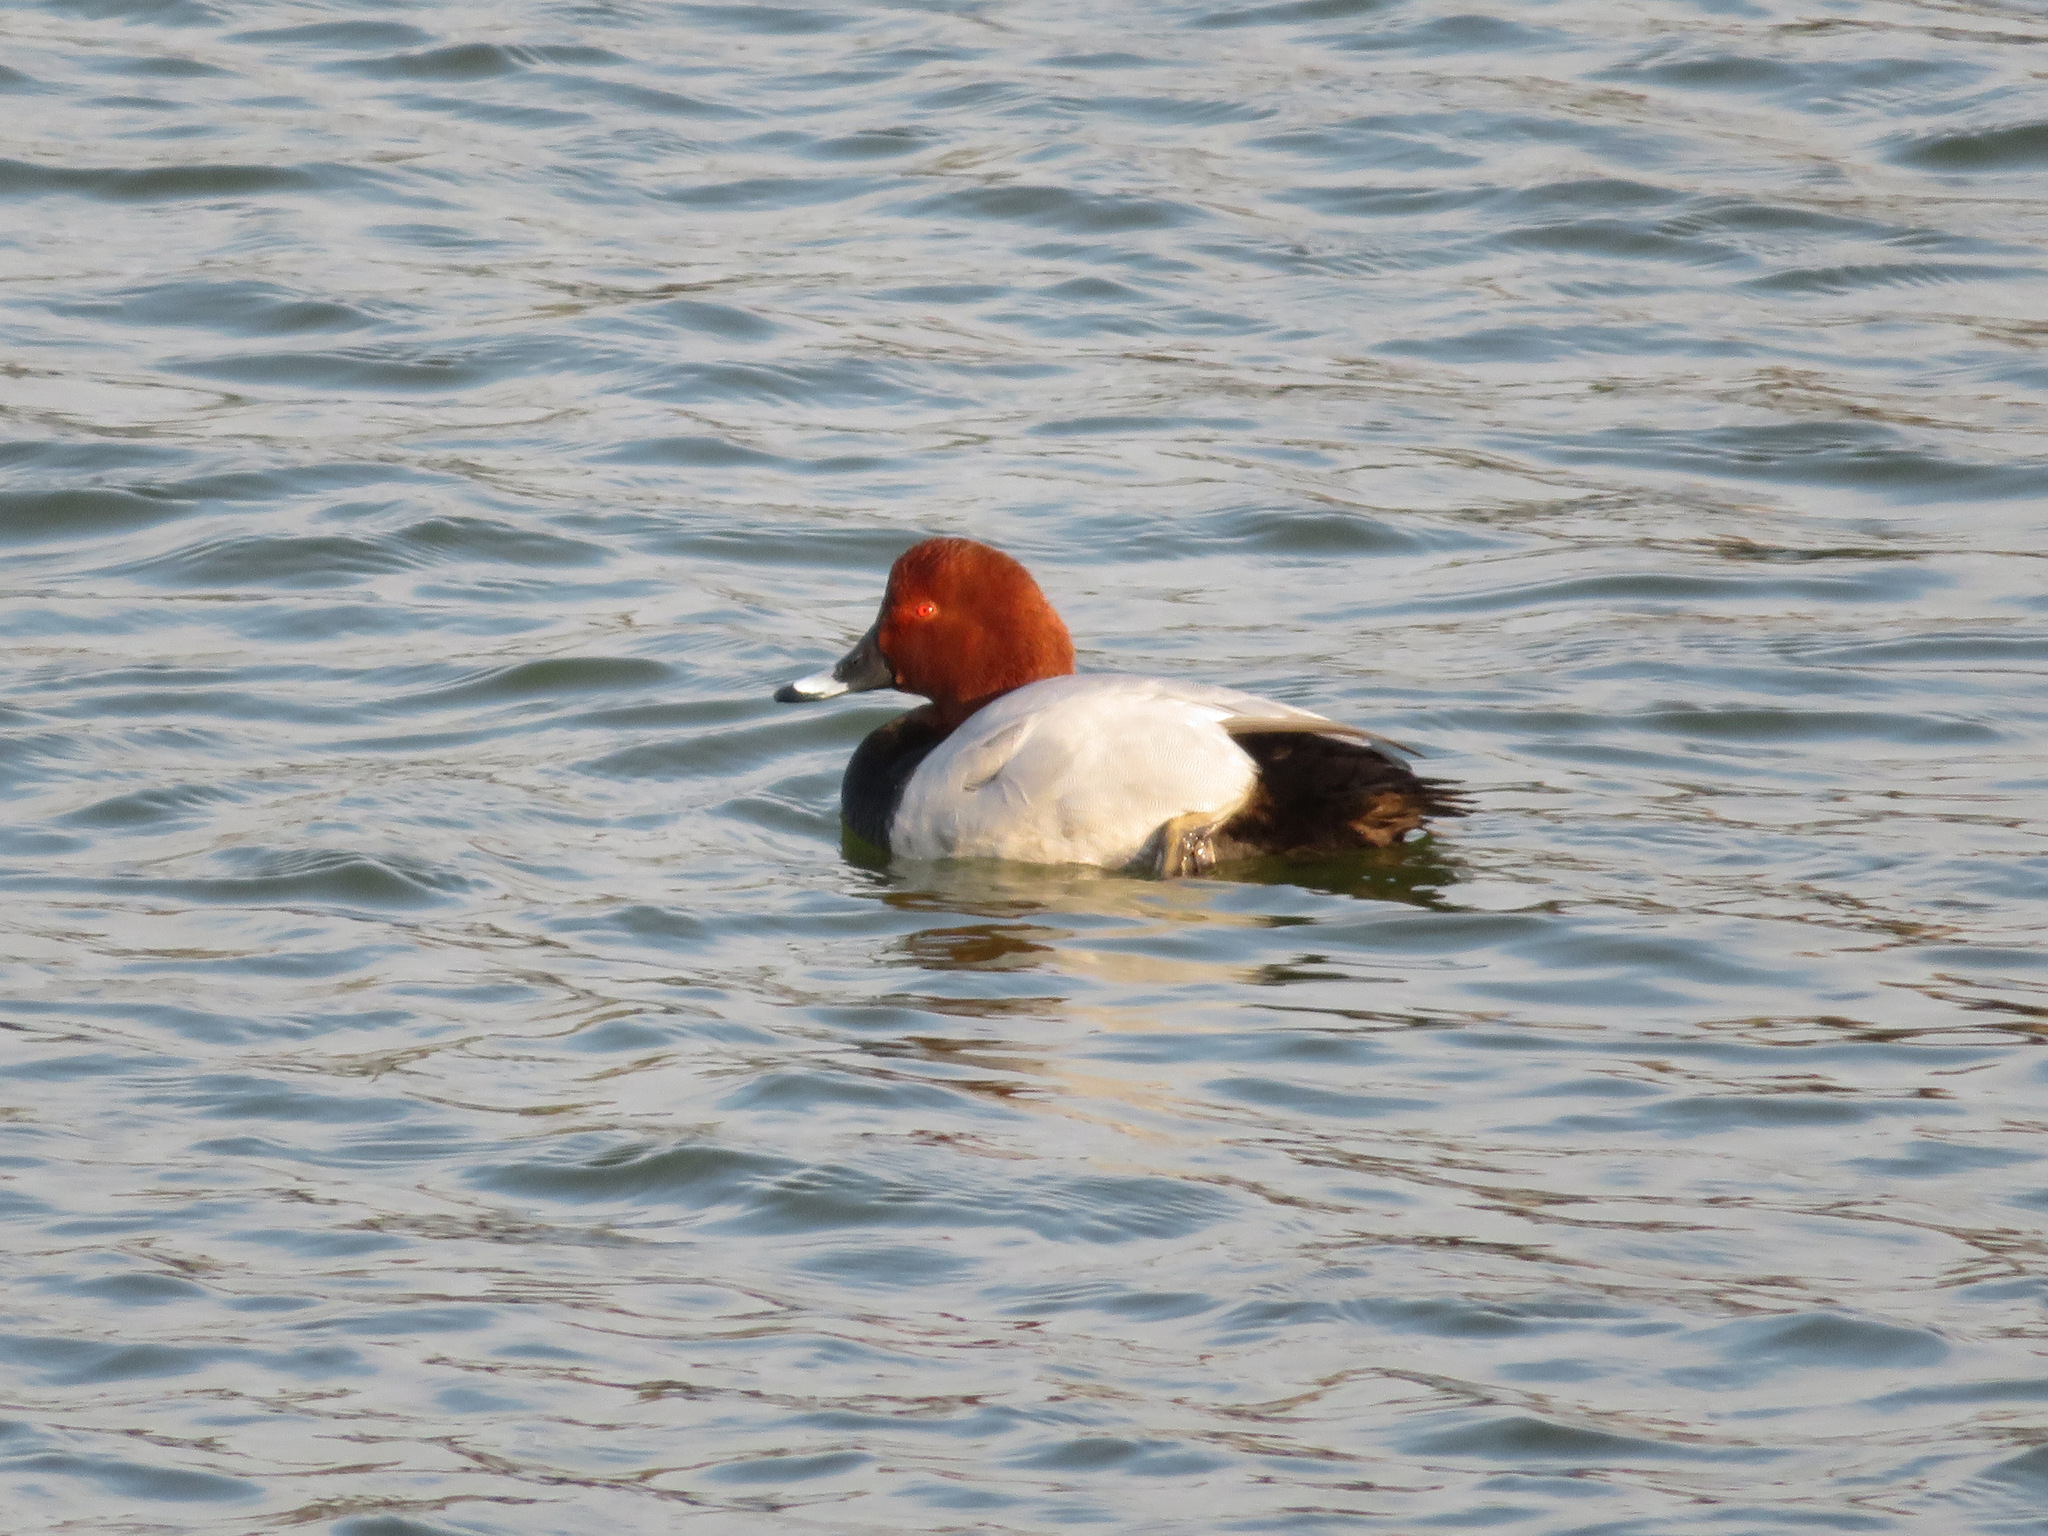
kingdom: Animalia
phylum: Chordata
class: Aves
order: Anseriformes
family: Anatidae
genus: Aythya
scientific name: Aythya ferina
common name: Common pochard
